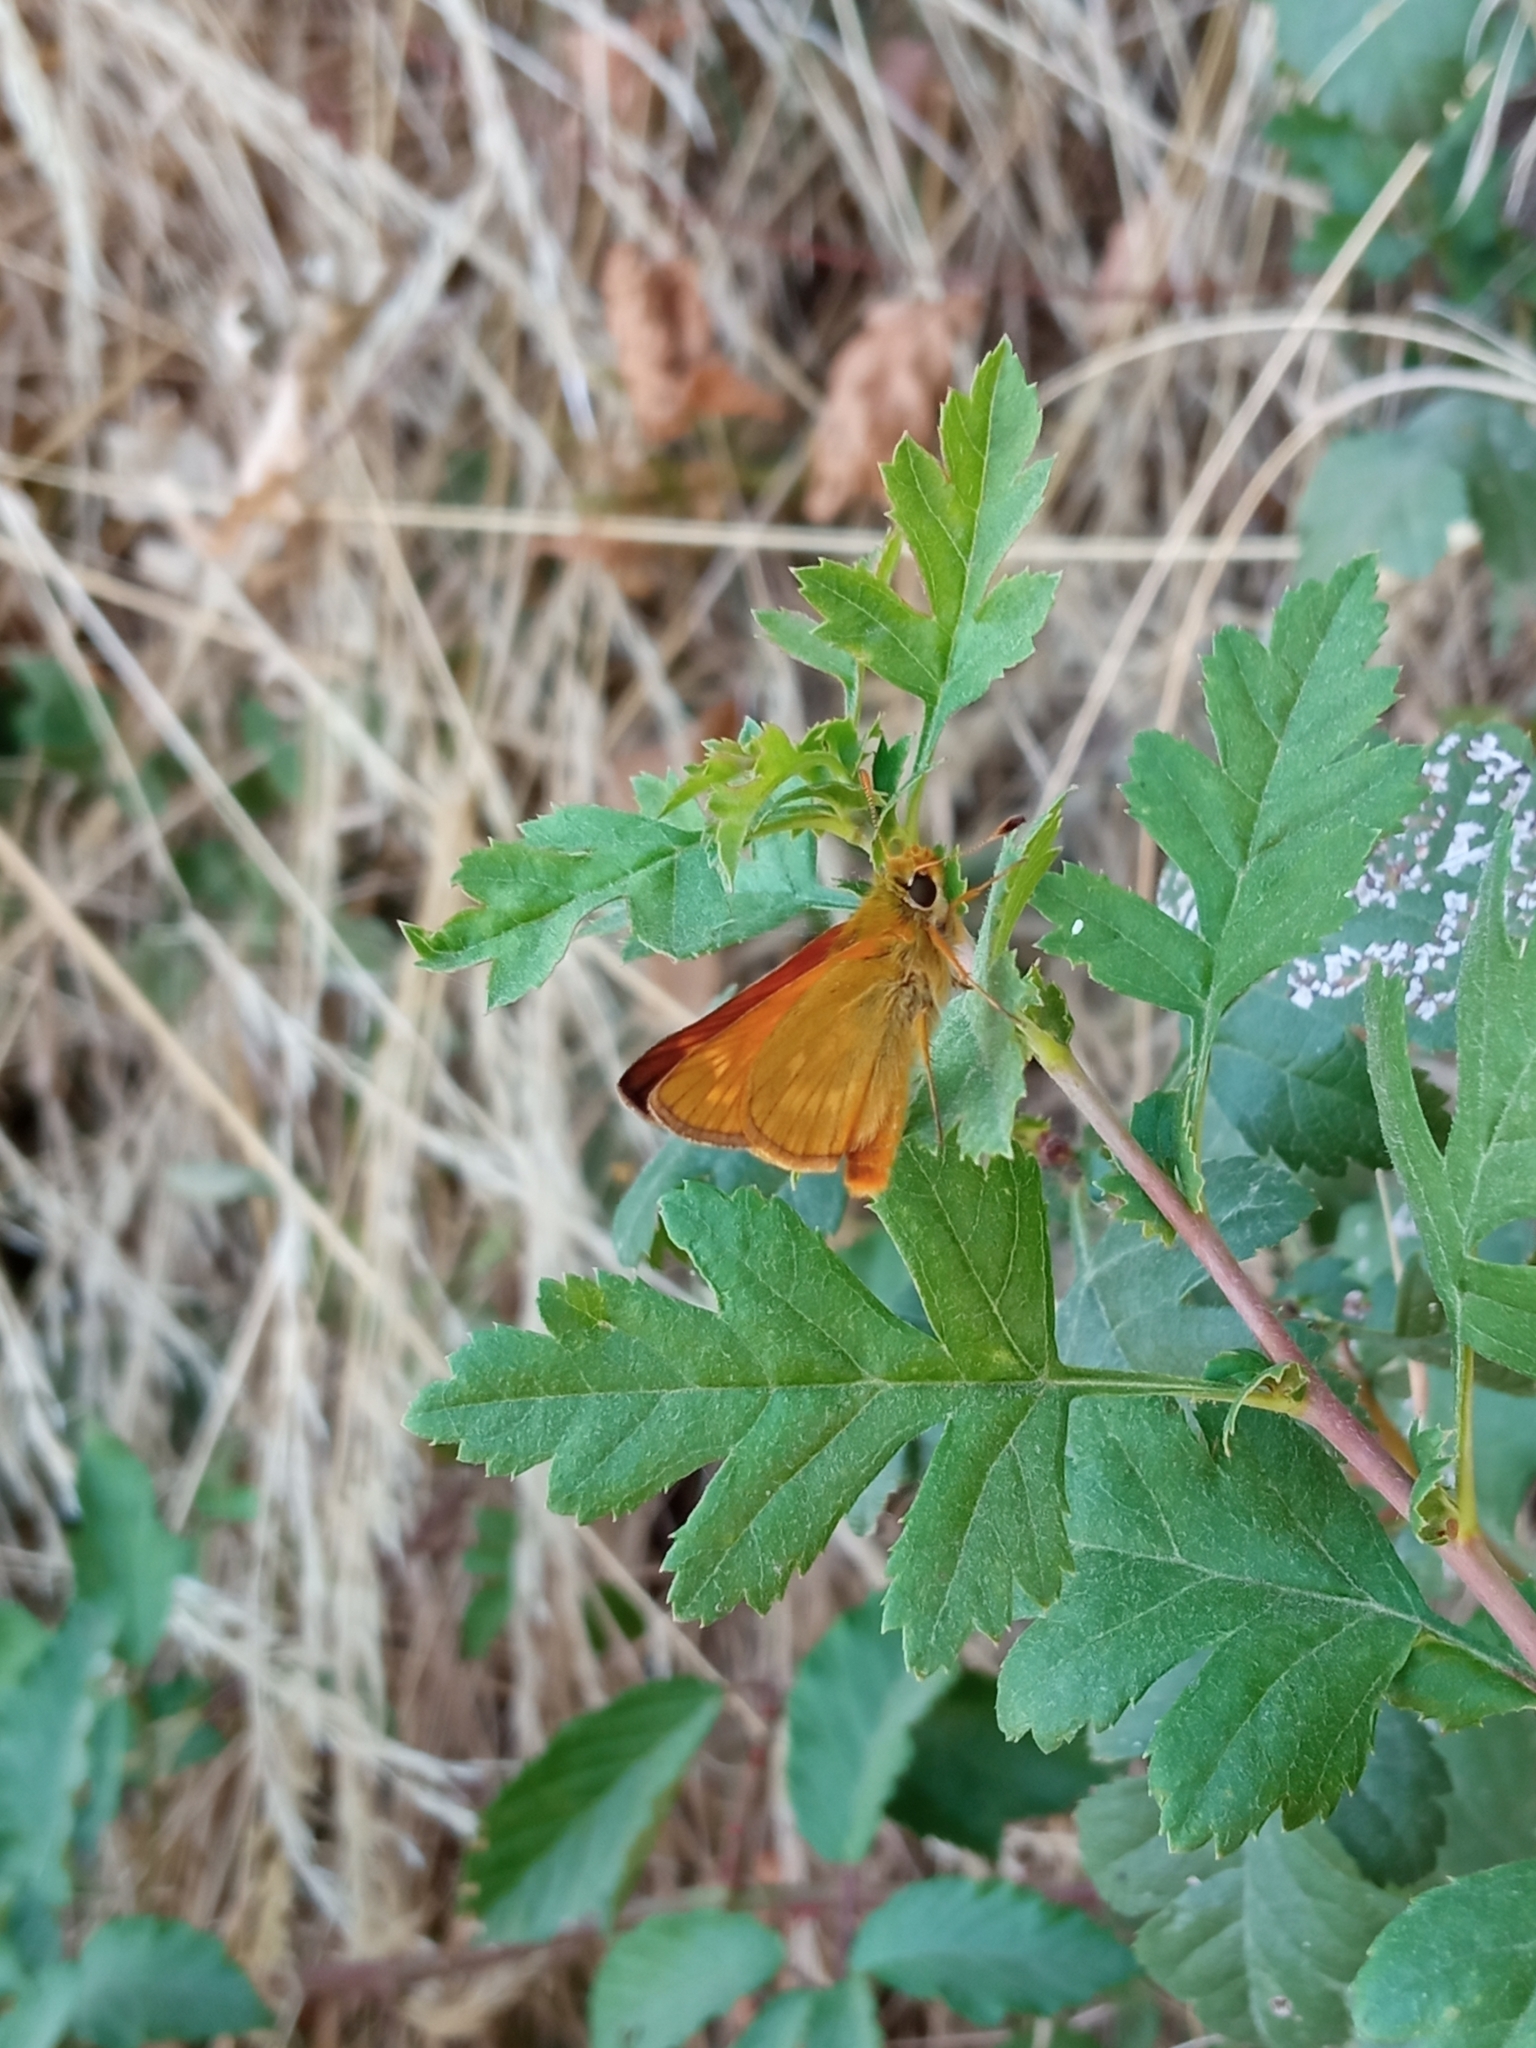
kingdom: Animalia
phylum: Arthropoda
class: Insecta
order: Lepidoptera
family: Hesperiidae
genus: Ochlodes
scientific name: Ochlodes venata
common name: Large skipper
